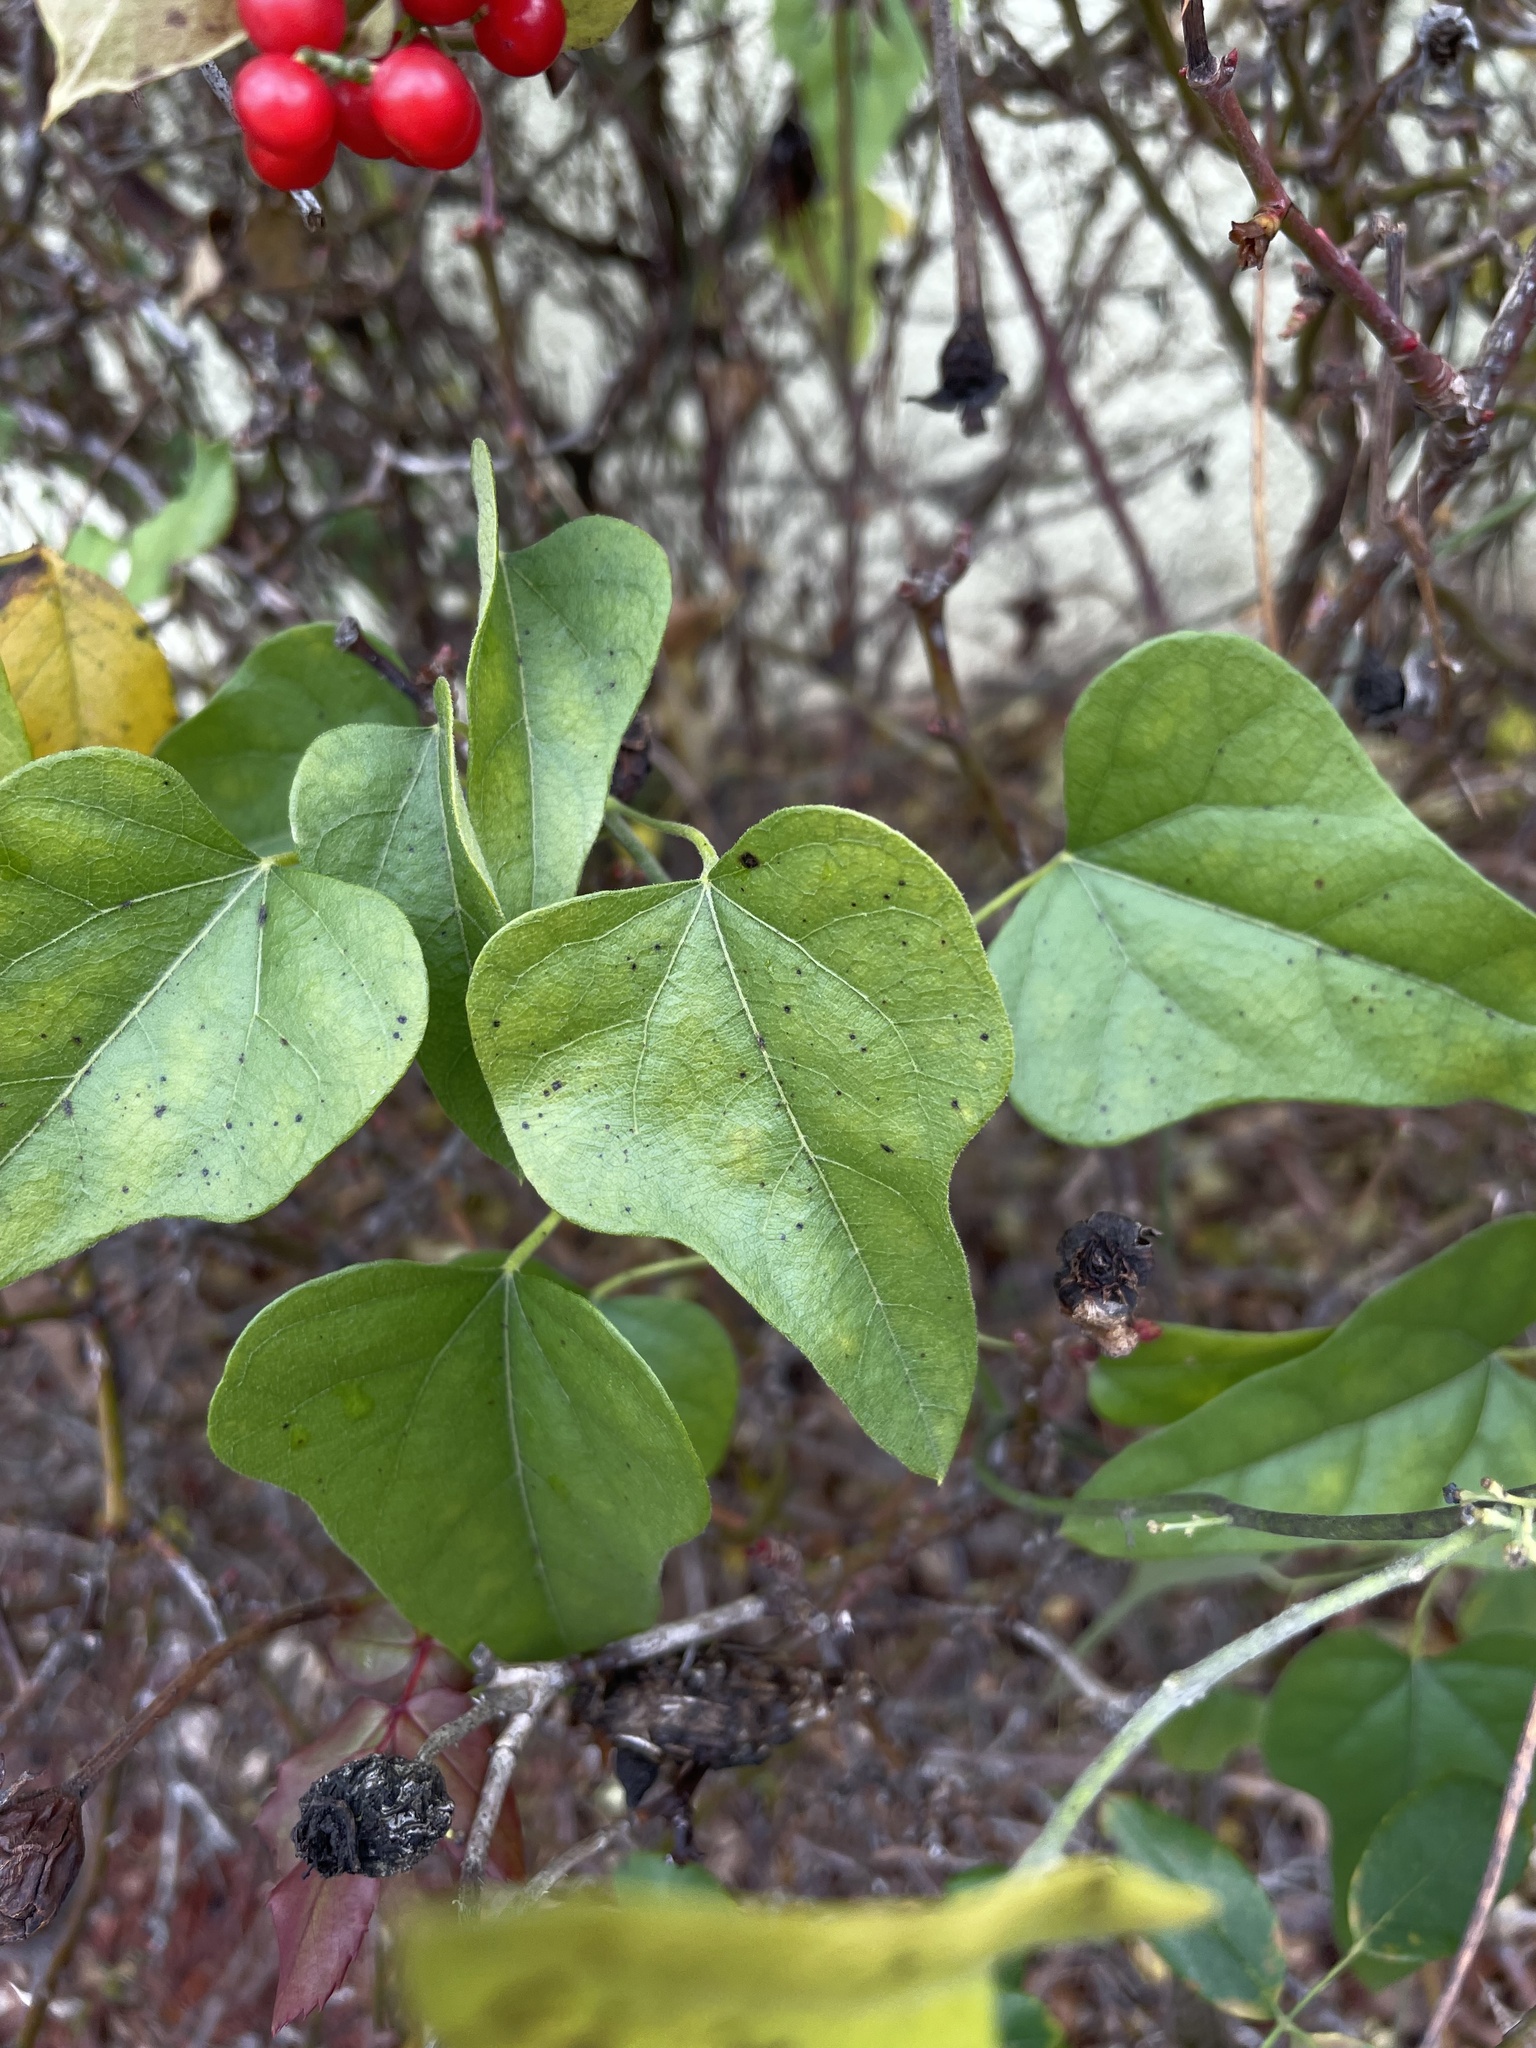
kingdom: Plantae
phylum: Tracheophyta
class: Magnoliopsida
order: Ranunculales
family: Menispermaceae
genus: Cocculus
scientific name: Cocculus carolinus
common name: Carolina moonseed
